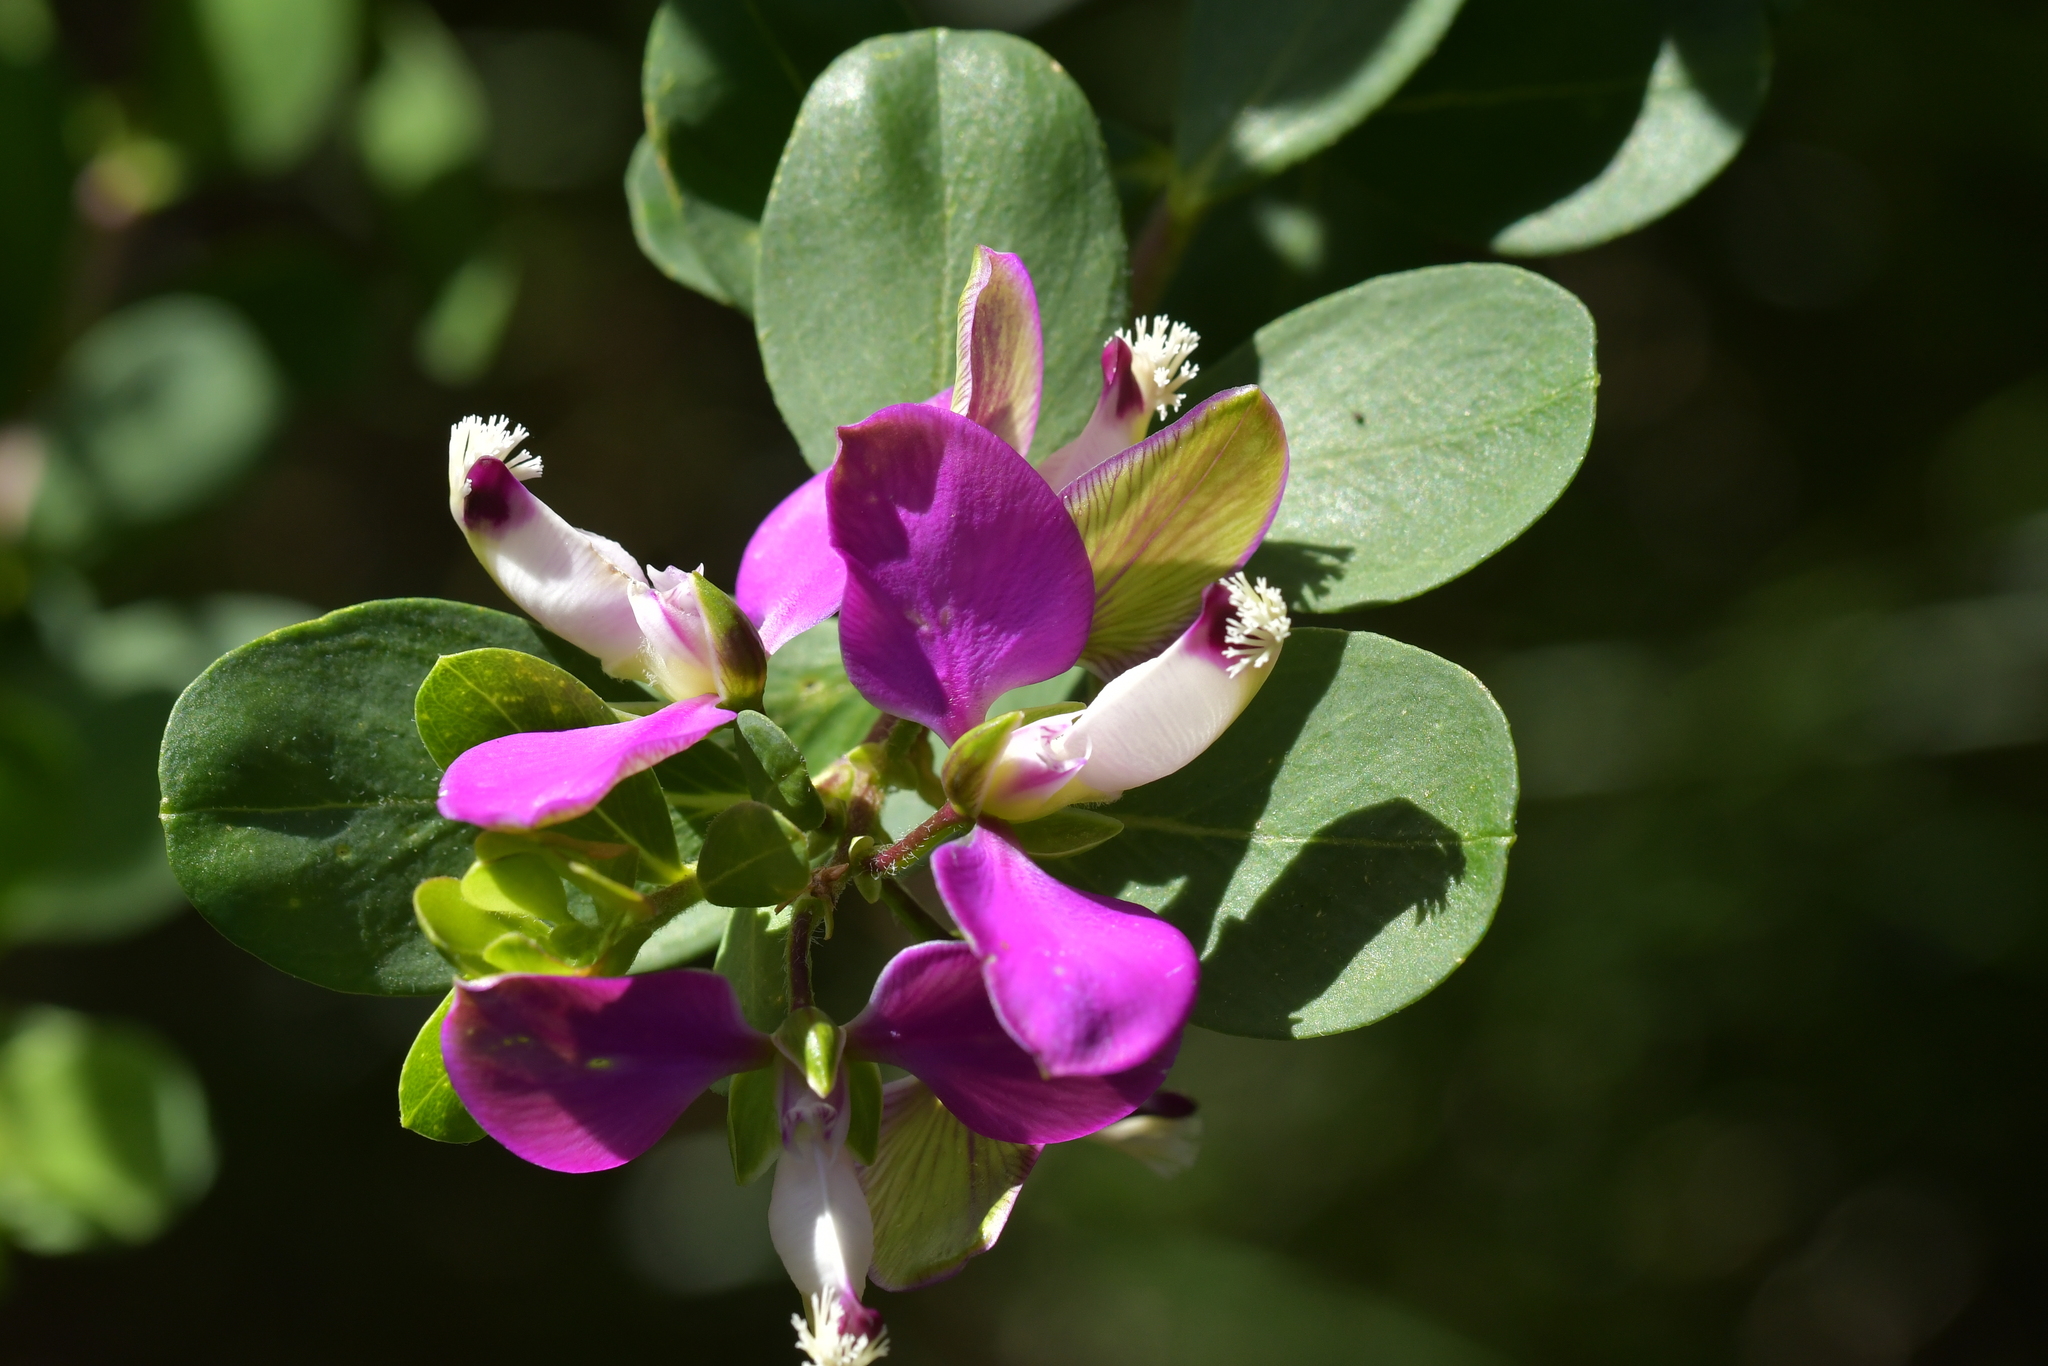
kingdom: Plantae
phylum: Tracheophyta
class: Magnoliopsida
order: Fabales
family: Polygalaceae
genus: Polygala
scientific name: Polygala myrtifolia
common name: Myrtle-leaf milkwort
